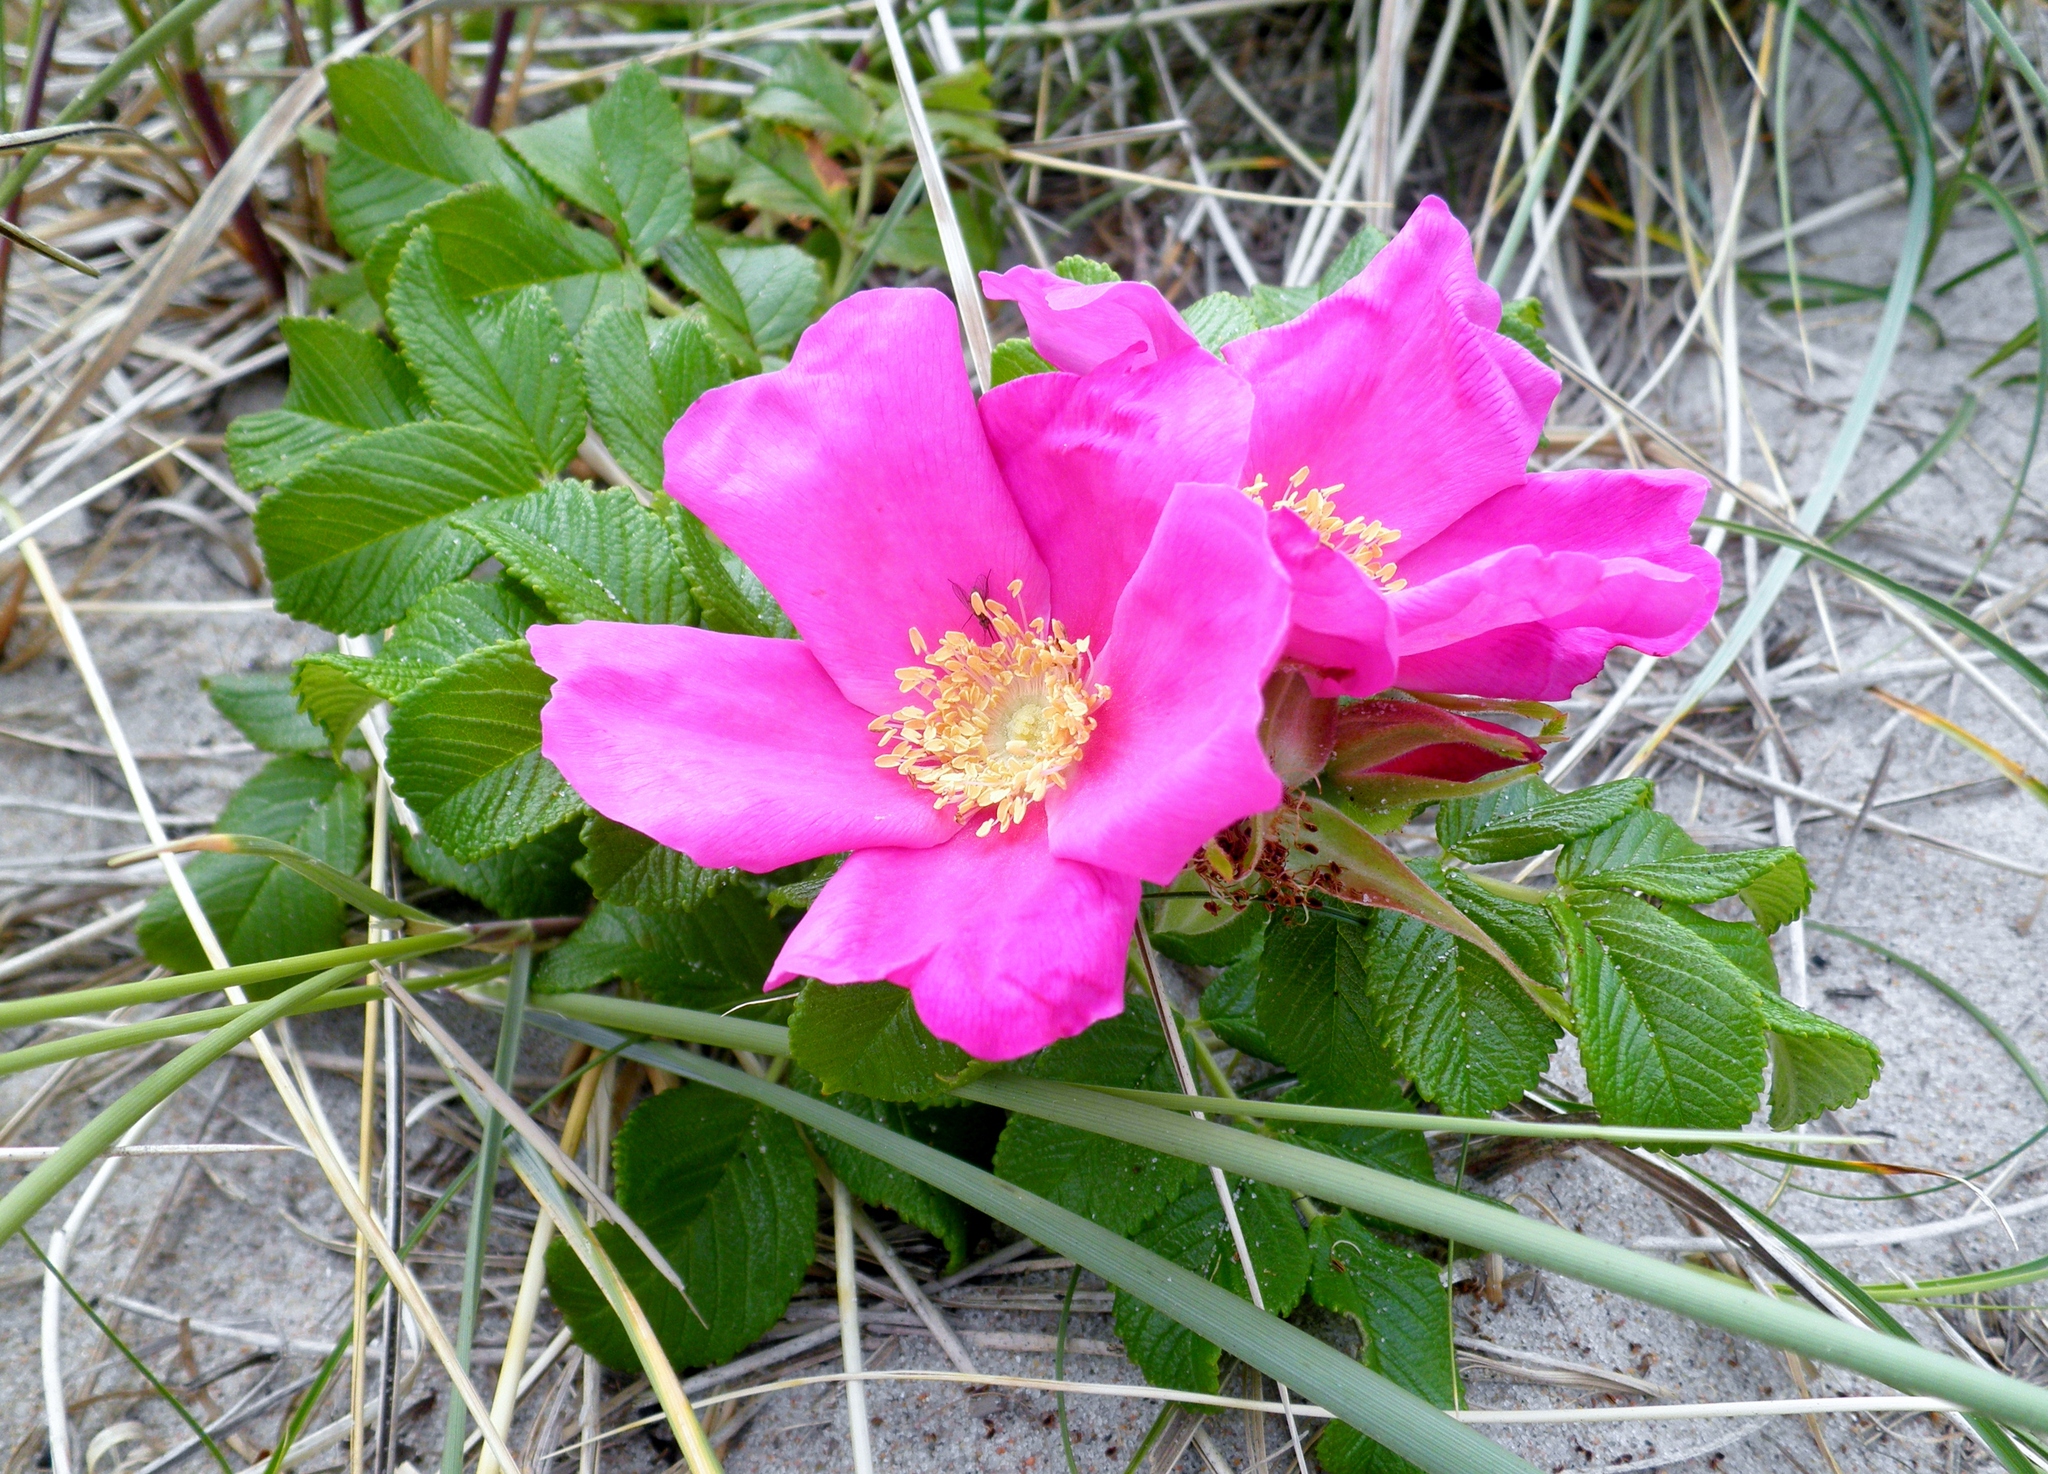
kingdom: Plantae
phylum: Tracheophyta
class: Magnoliopsida
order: Rosales
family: Rosaceae
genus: Rosa
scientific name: Rosa rugosa
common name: Japanese rose
